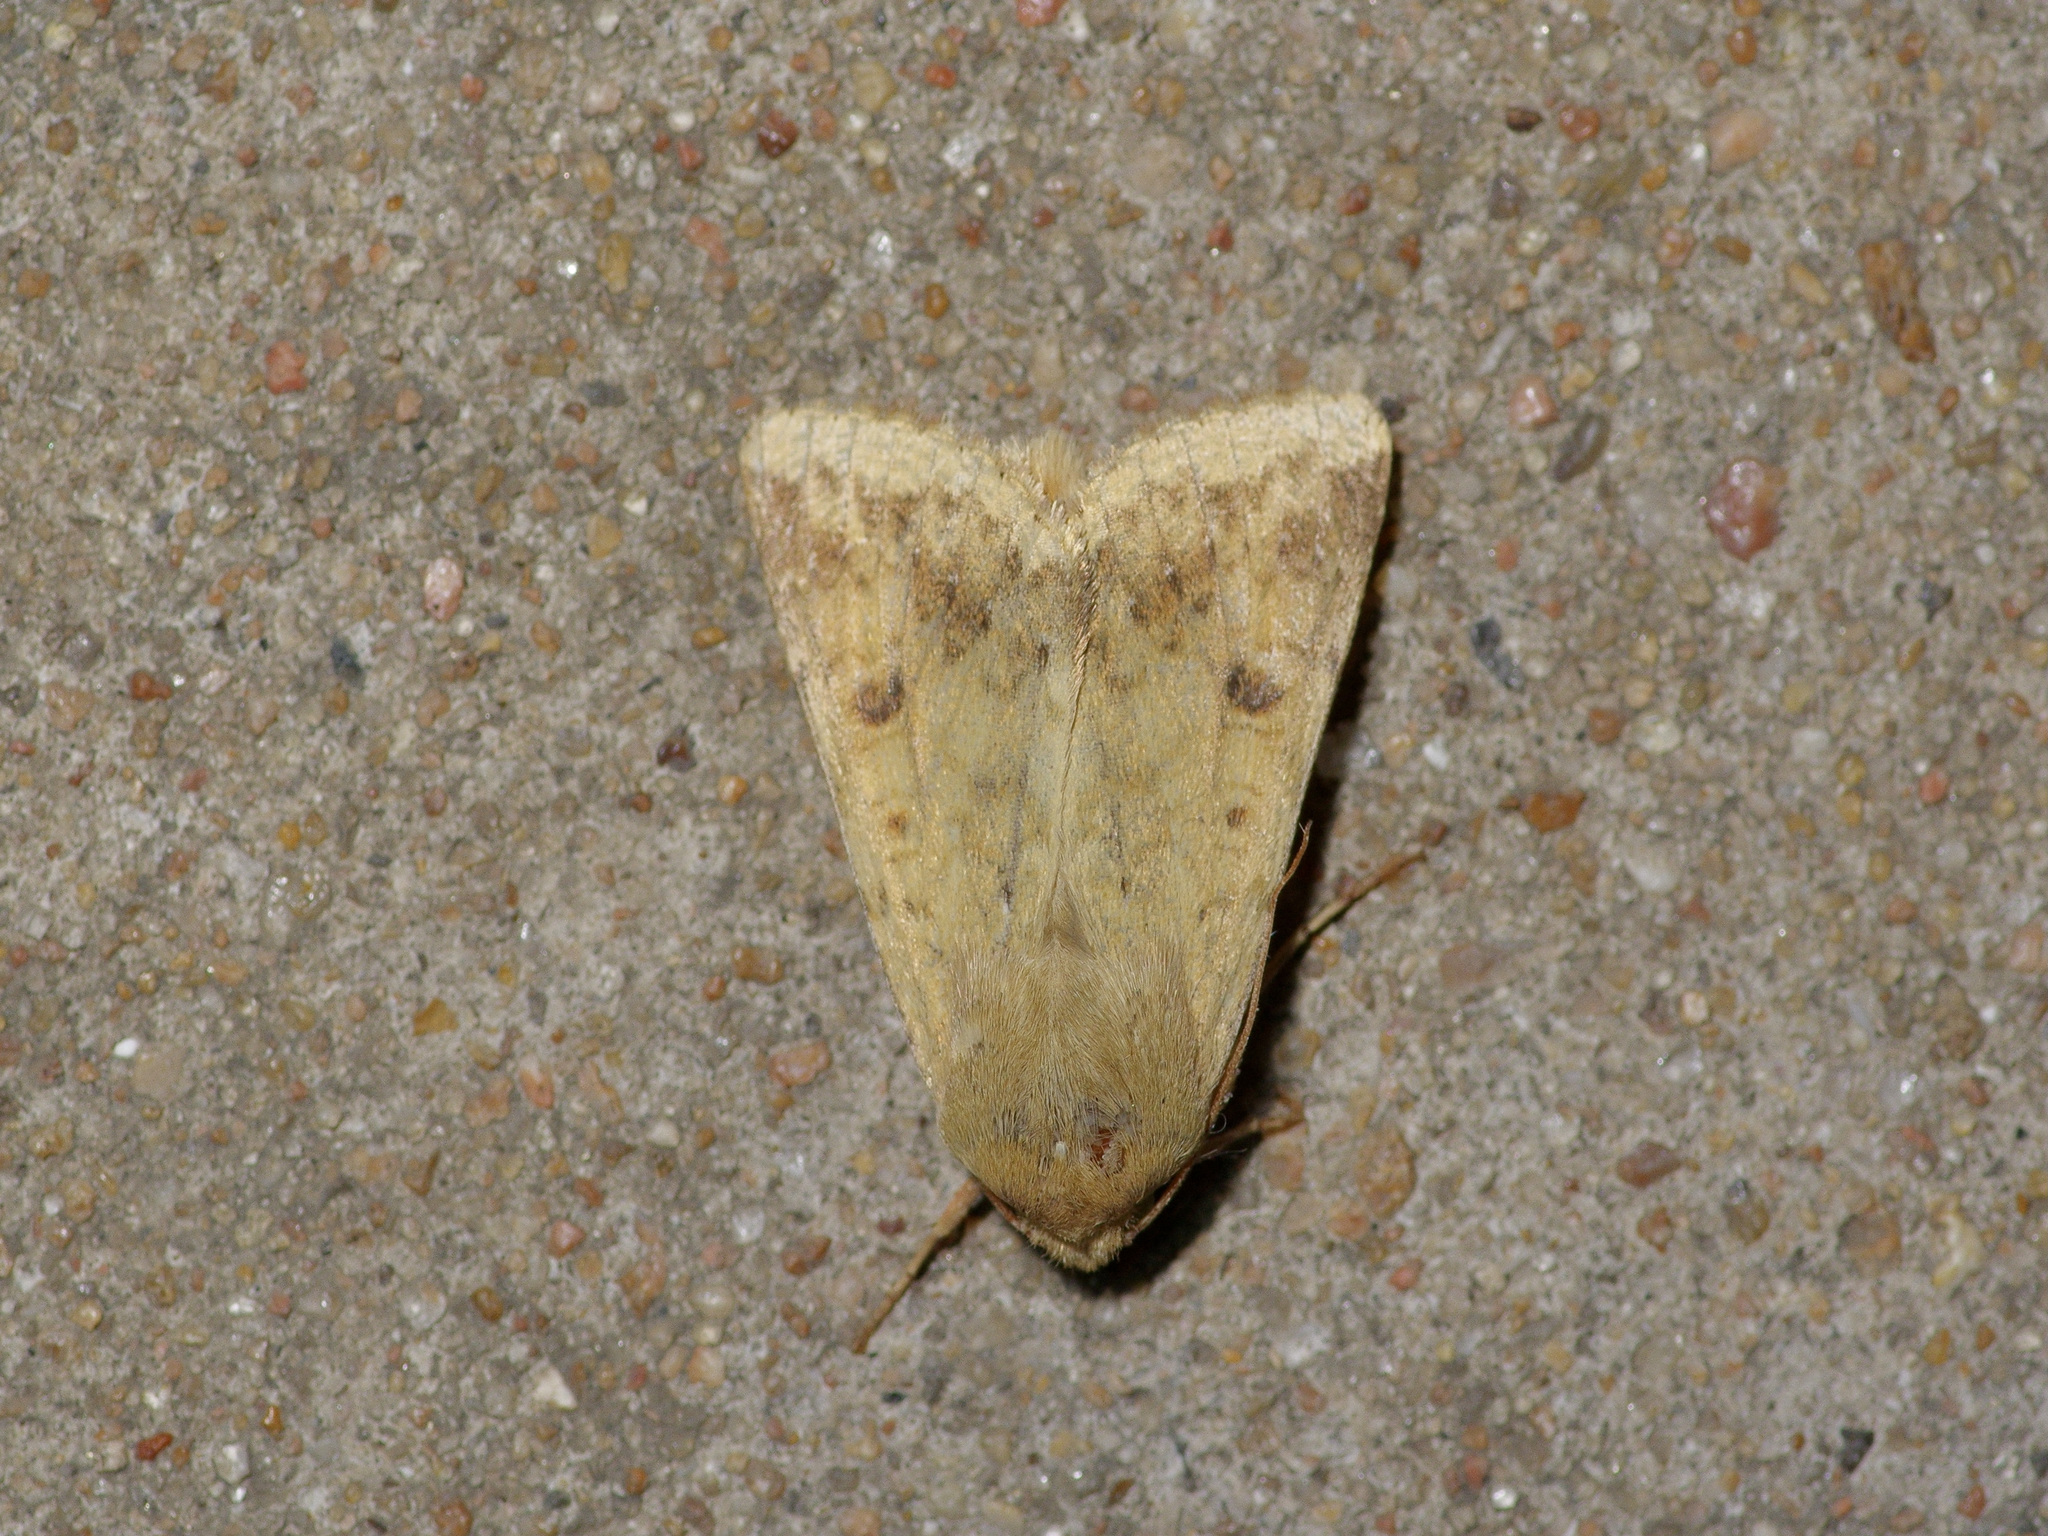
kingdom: Animalia
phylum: Arthropoda
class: Insecta
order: Lepidoptera
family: Noctuidae
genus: Helicoverpa
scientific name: Helicoverpa zea
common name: Bollworm
